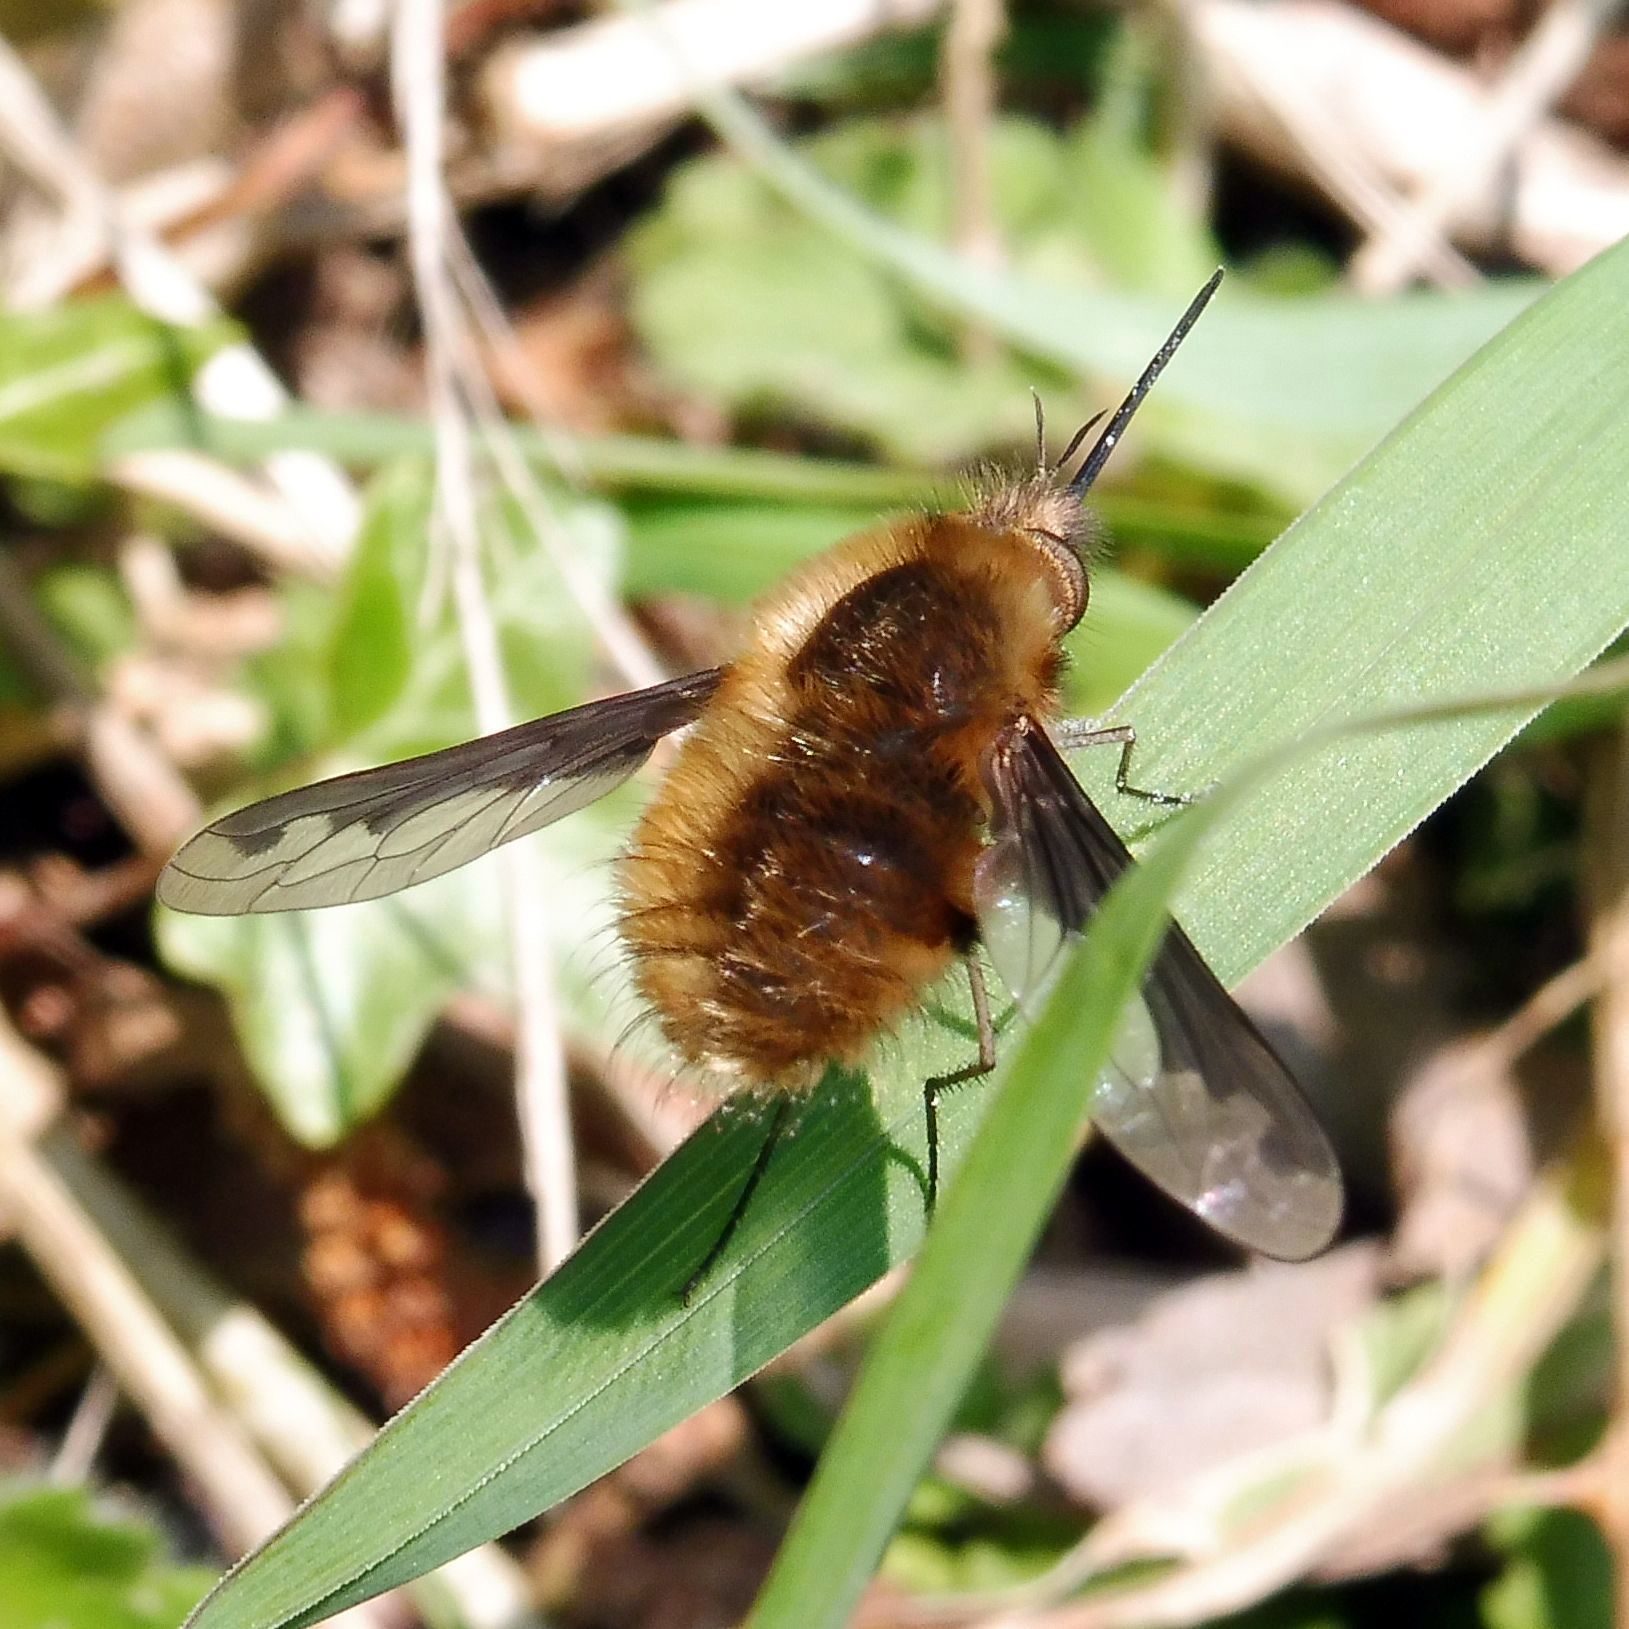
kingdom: Animalia
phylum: Arthropoda
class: Insecta
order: Diptera
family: Bombyliidae
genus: Bombylius
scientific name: Bombylius major
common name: Bee fly
